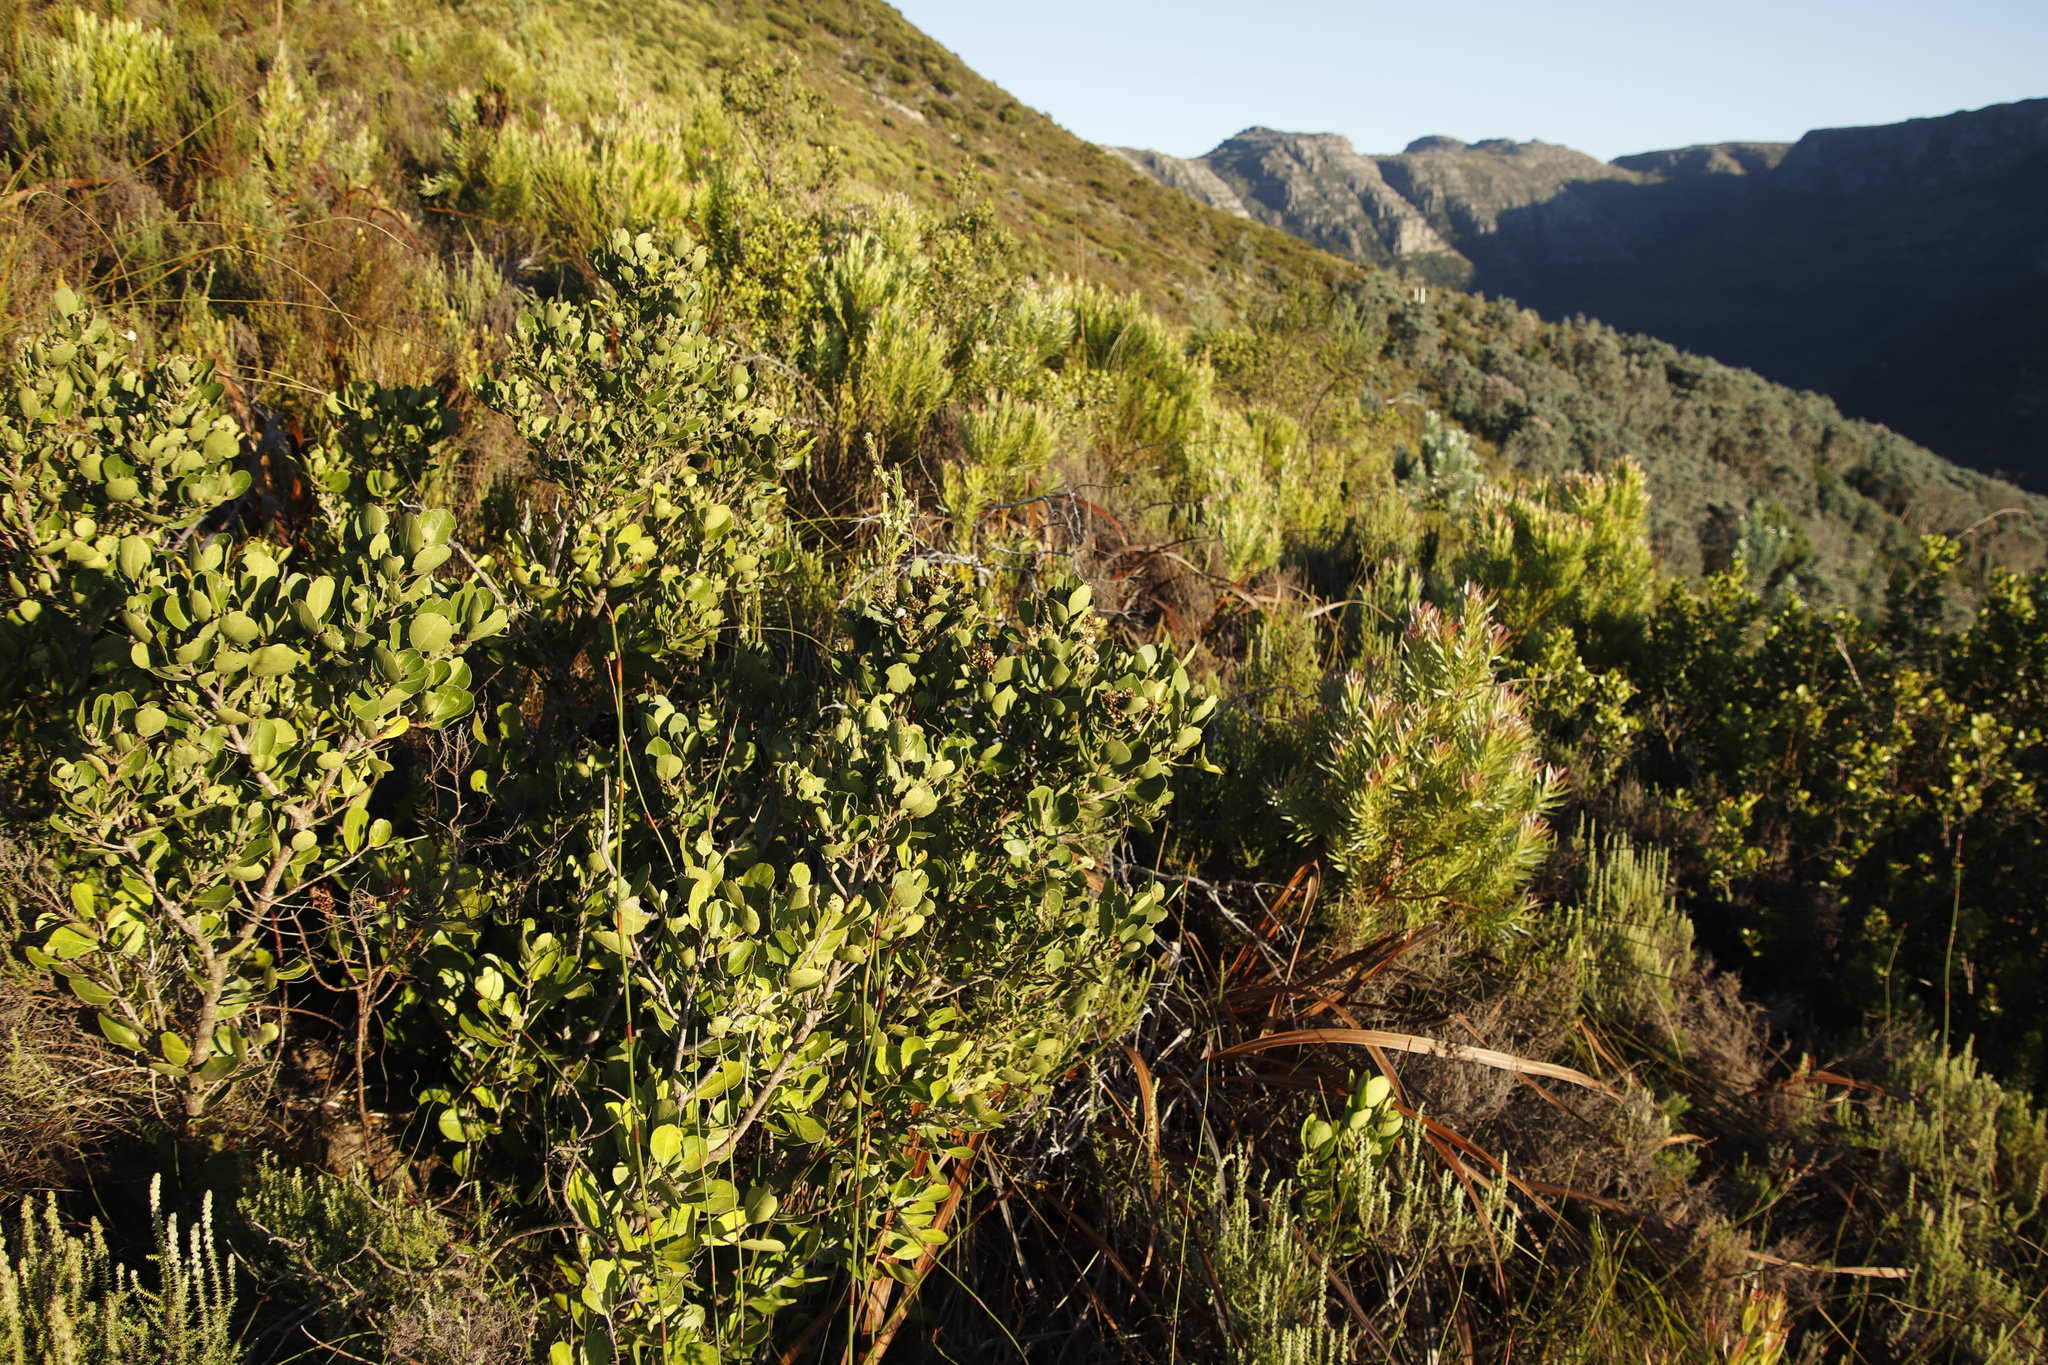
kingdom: Plantae
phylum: Tracheophyta
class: Magnoliopsida
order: Lamiales
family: Oleaceae
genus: Olea
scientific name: Olea capensis
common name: Black ironwood
